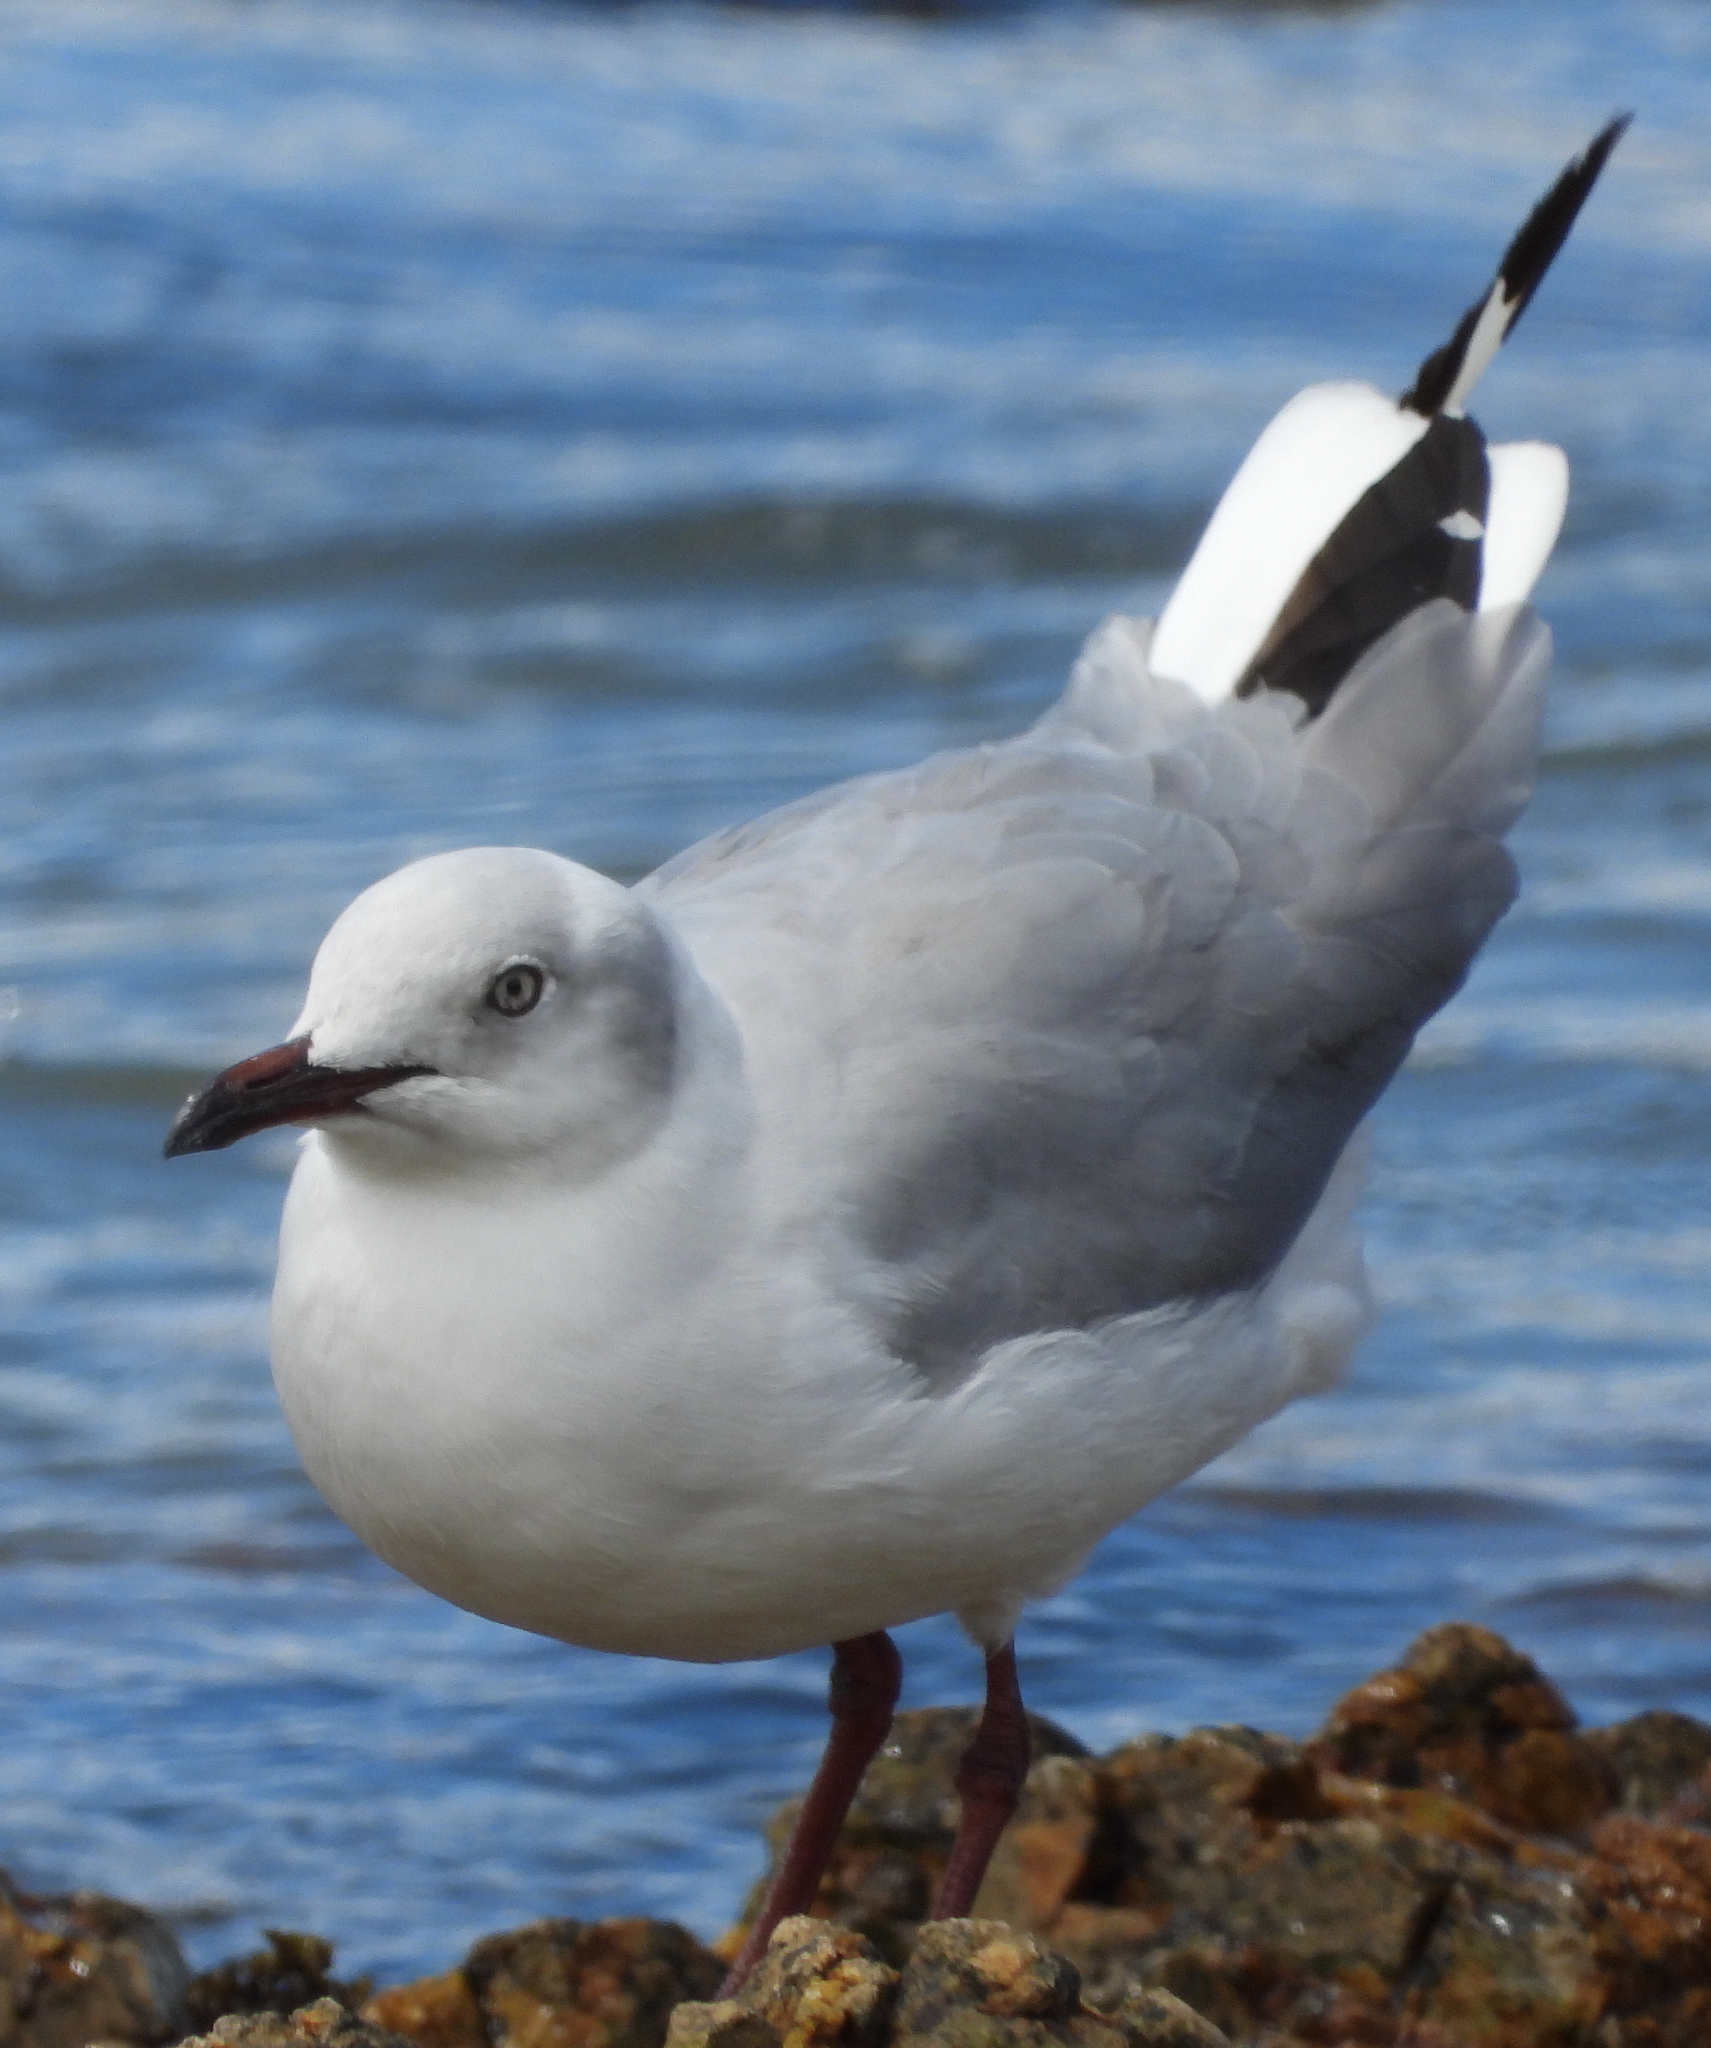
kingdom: Animalia
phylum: Chordata
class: Aves
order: Charadriiformes
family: Laridae
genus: Chroicocephalus
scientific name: Chroicocephalus cirrocephalus
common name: Grey-headed gull
